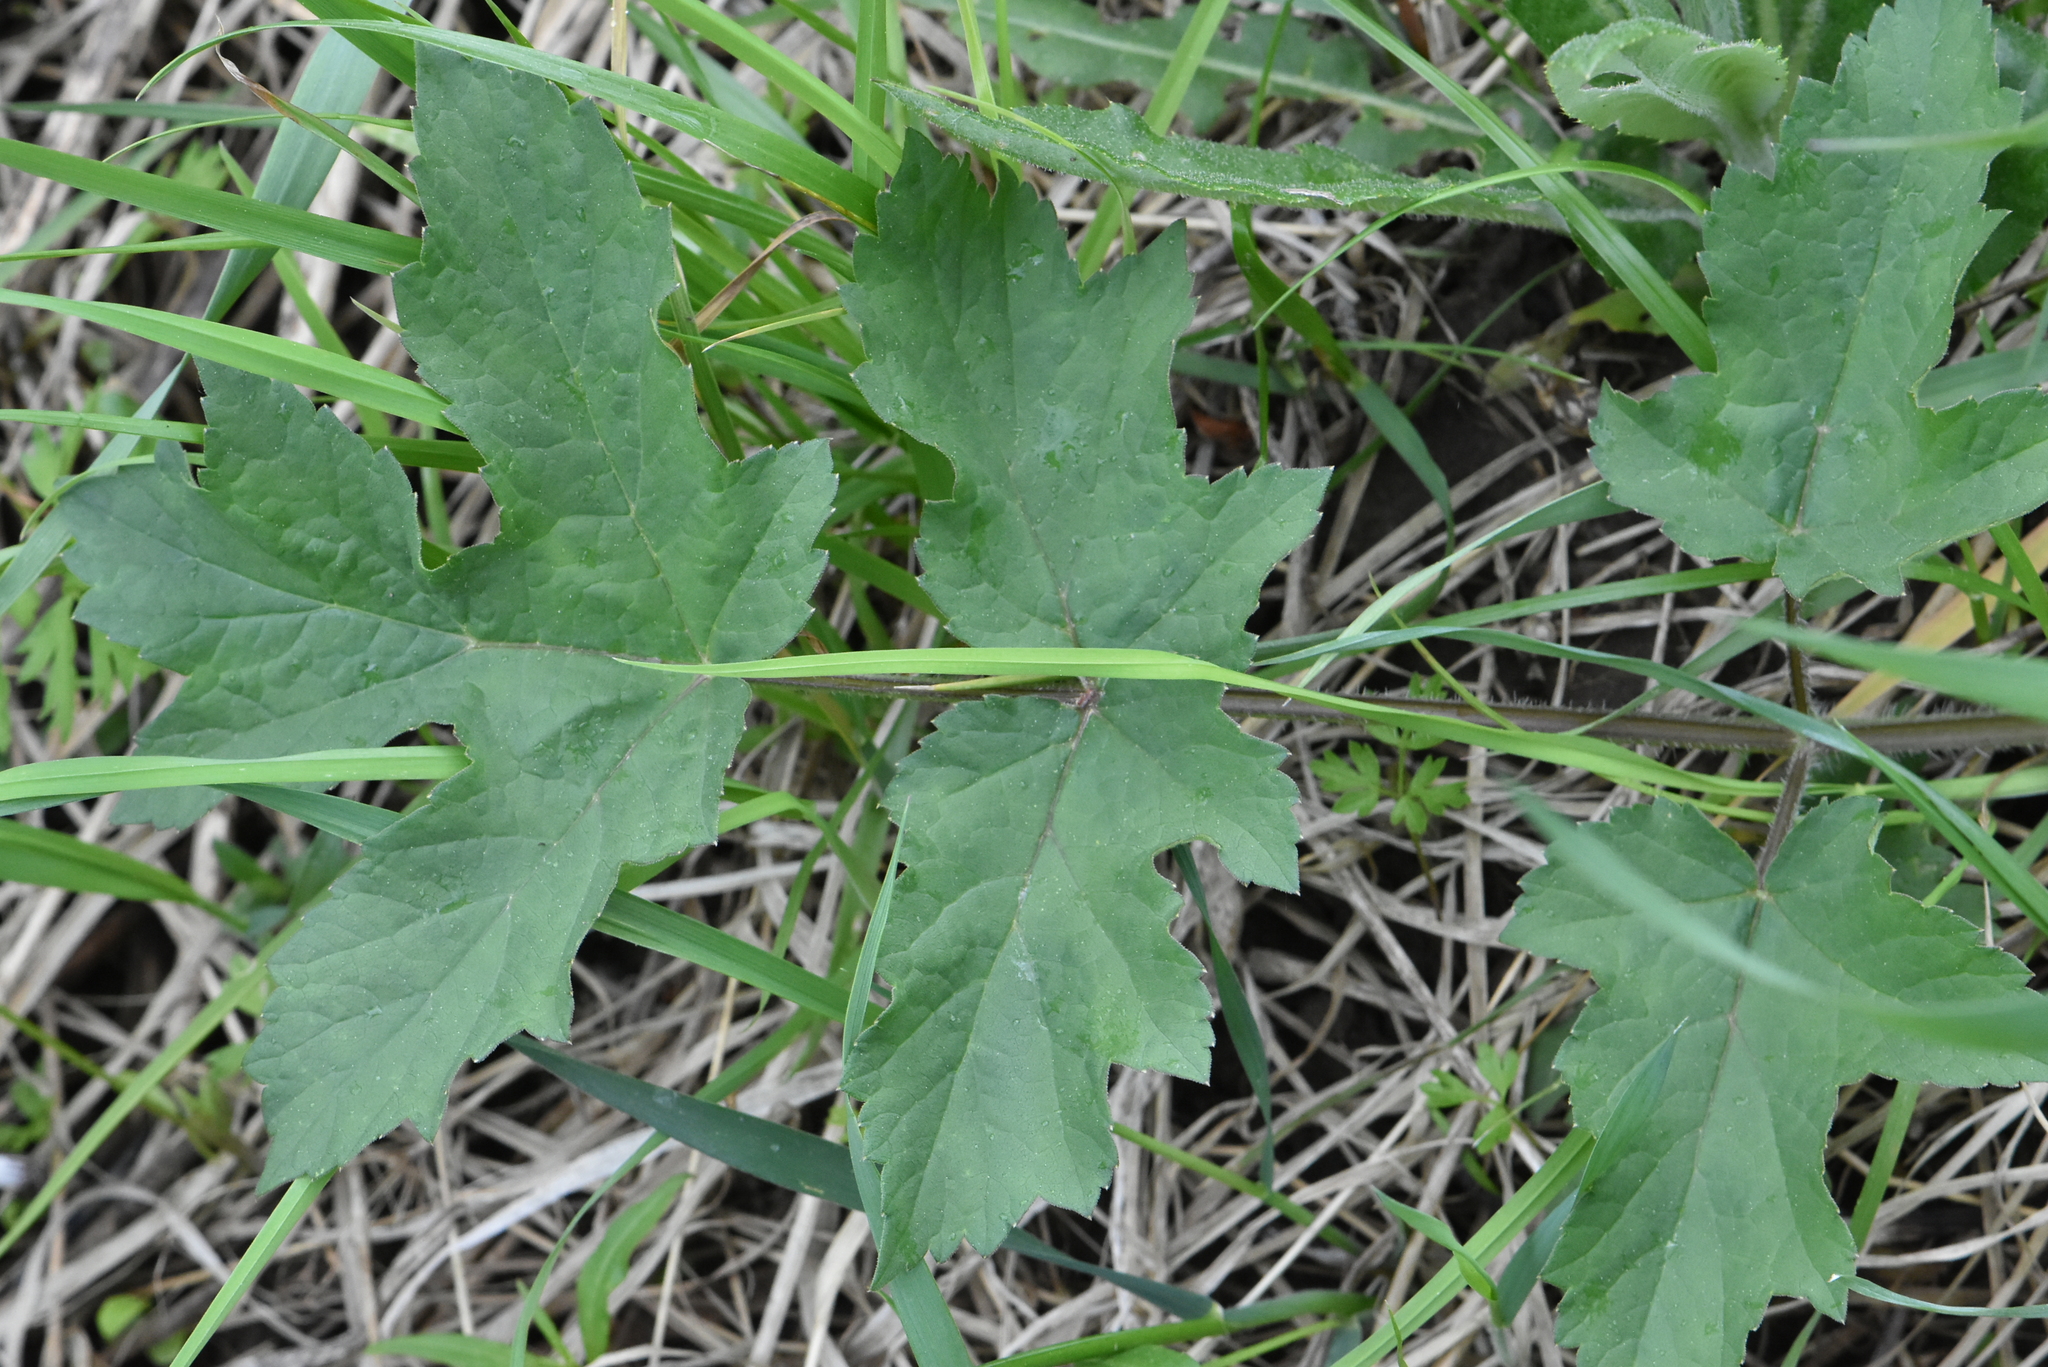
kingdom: Plantae
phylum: Tracheophyta
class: Magnoliopsida
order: Apiales
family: Apiaceae
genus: Heracleum
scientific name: Heracleum sphondylium
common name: Hogweed
